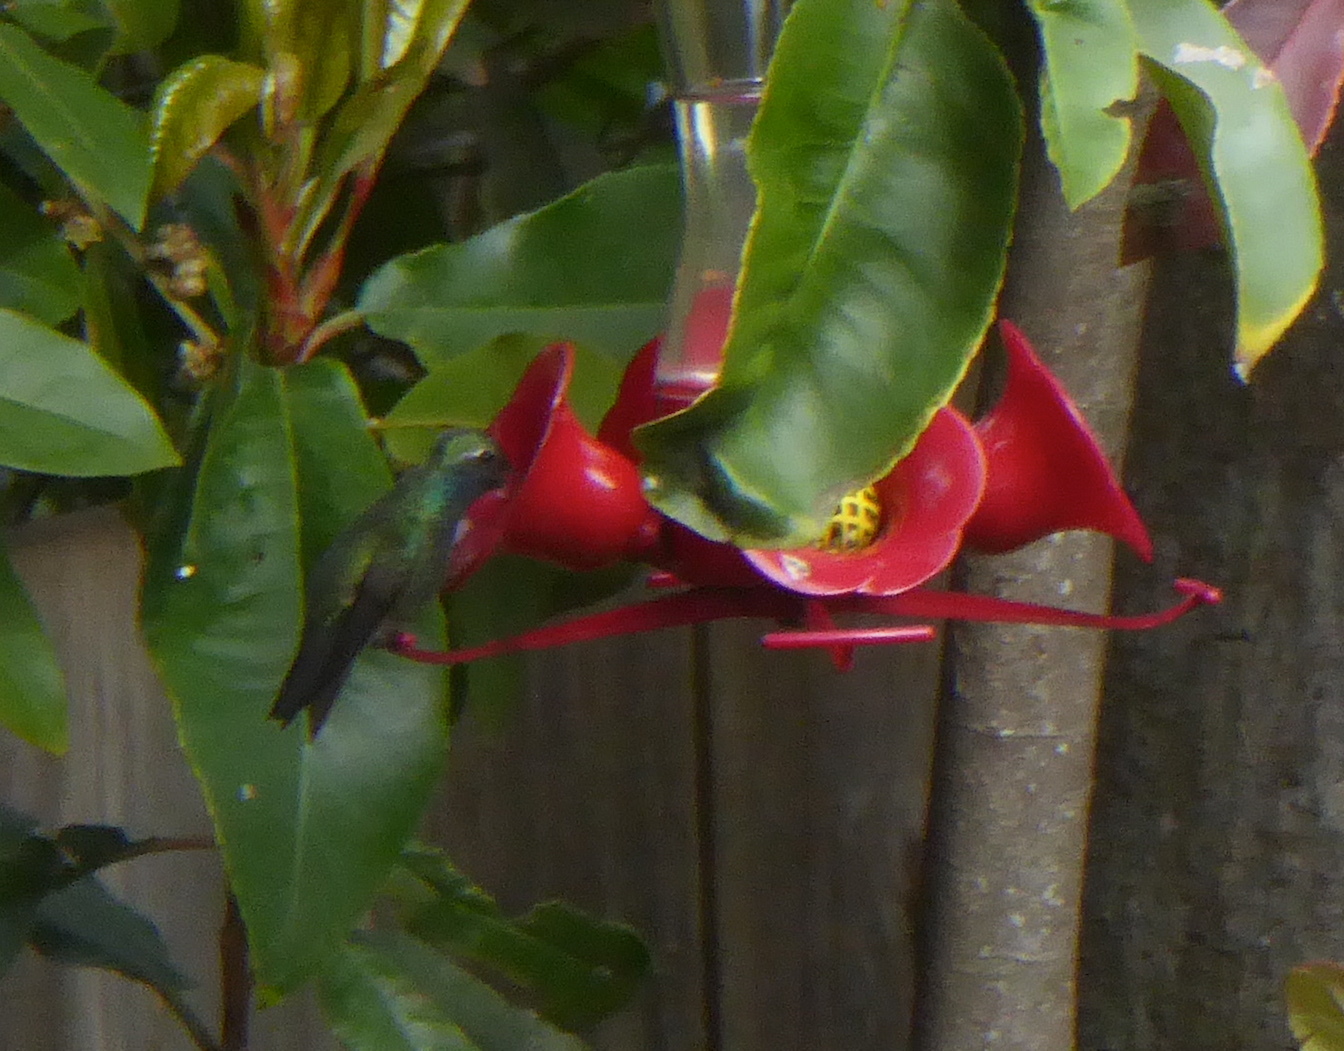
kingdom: Animalia
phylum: Chordata
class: Aves
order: Apodiformes
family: Trochilidae
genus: Cynanthus
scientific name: Cynanthus latirostris
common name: Broad-billed hummingbird
